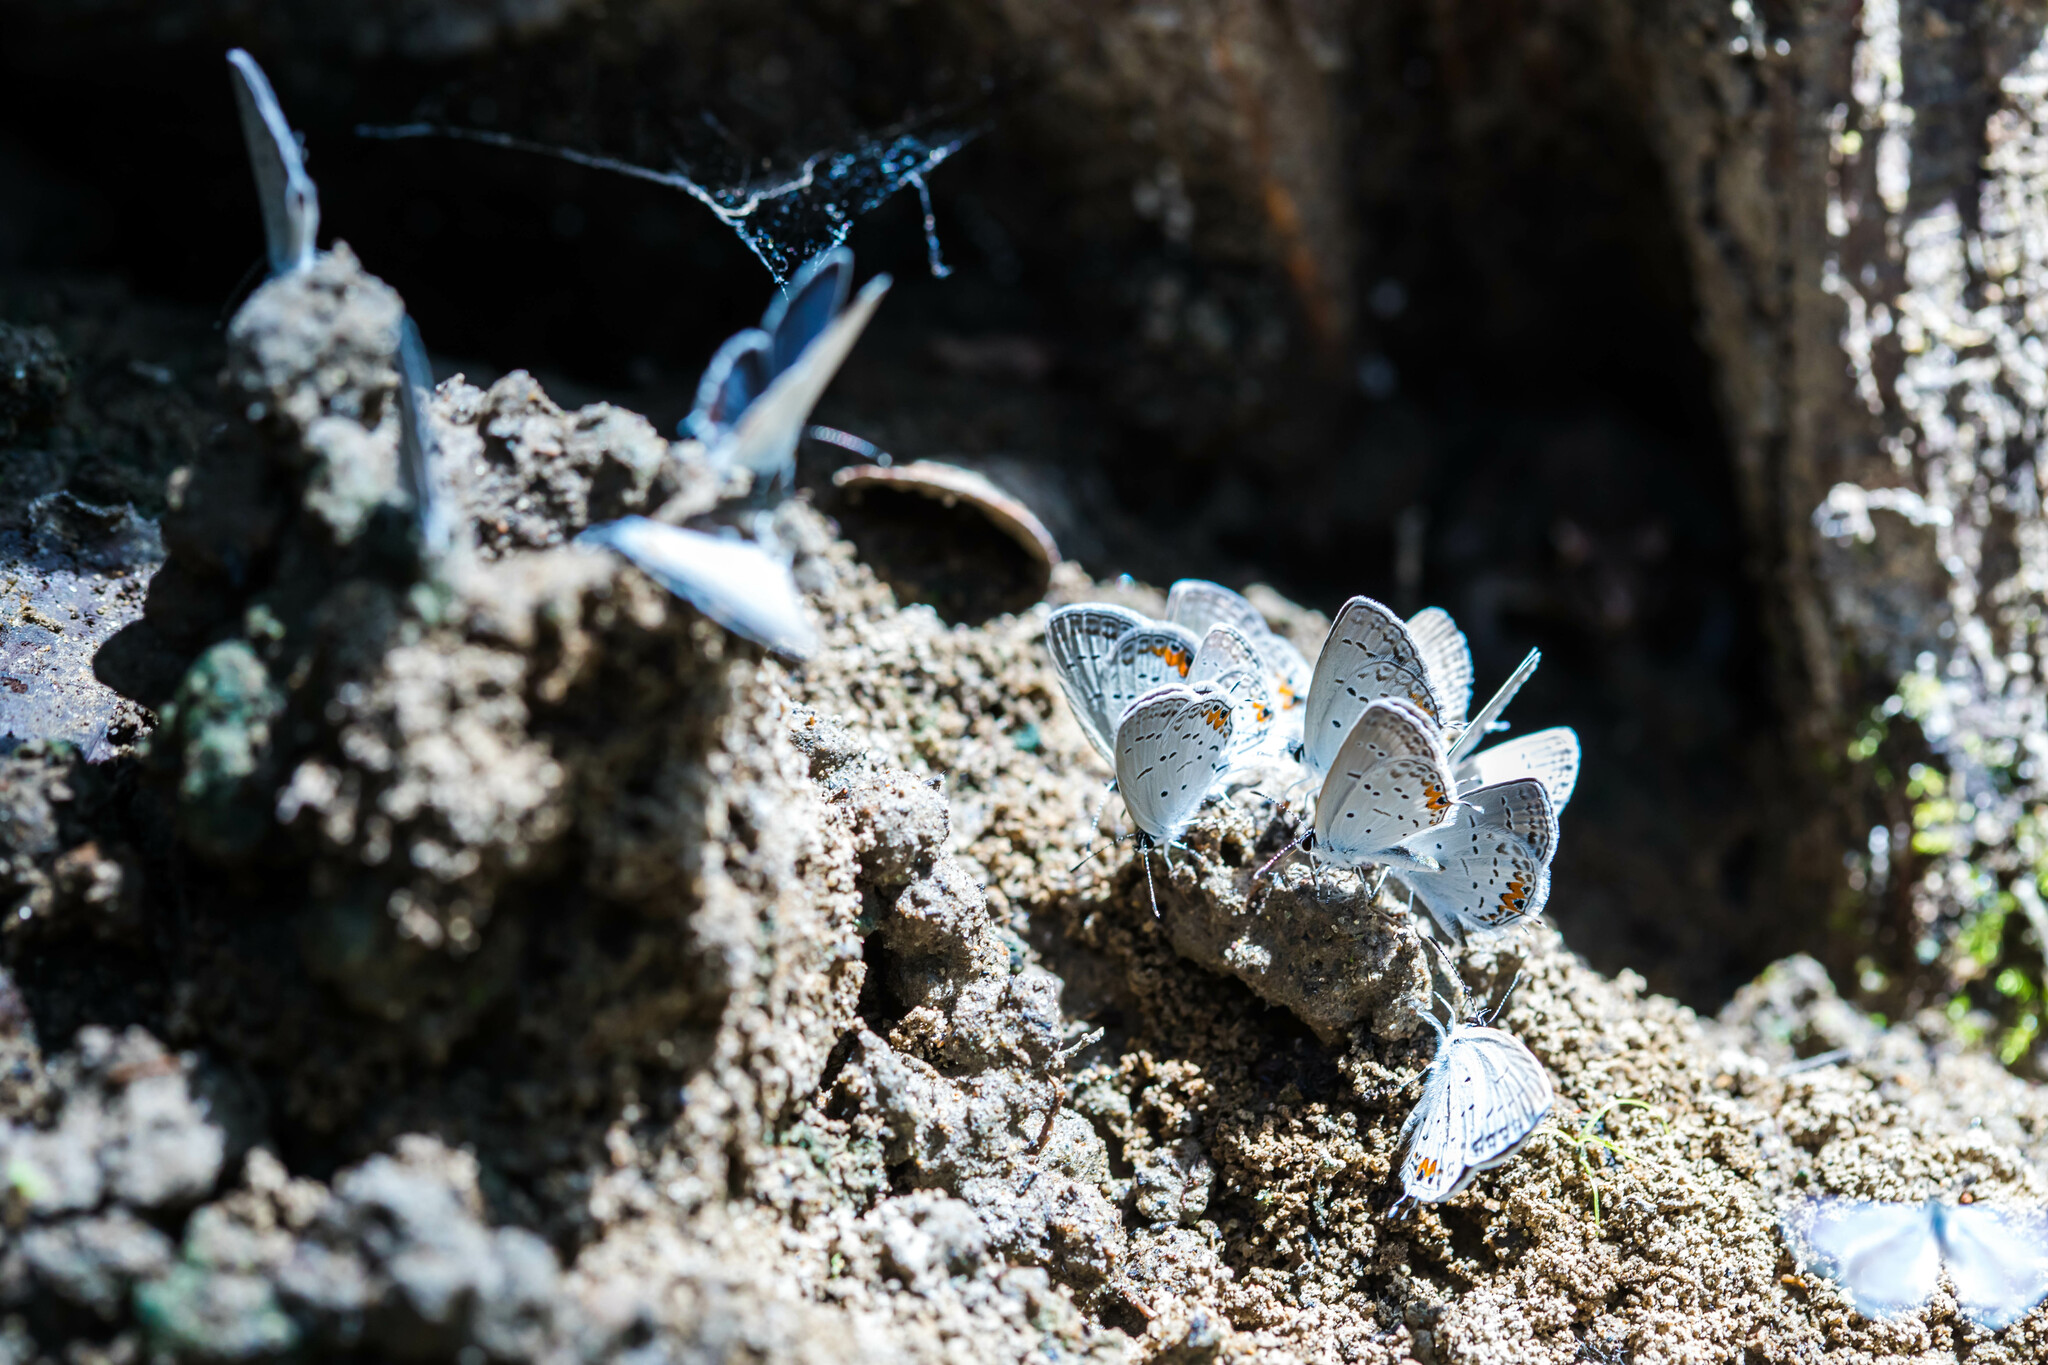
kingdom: Animalia
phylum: Arthropoda
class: Insecta
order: Lepidoptera
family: Lycaenidae
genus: Elkalyce
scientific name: Elkalyce comyntas
